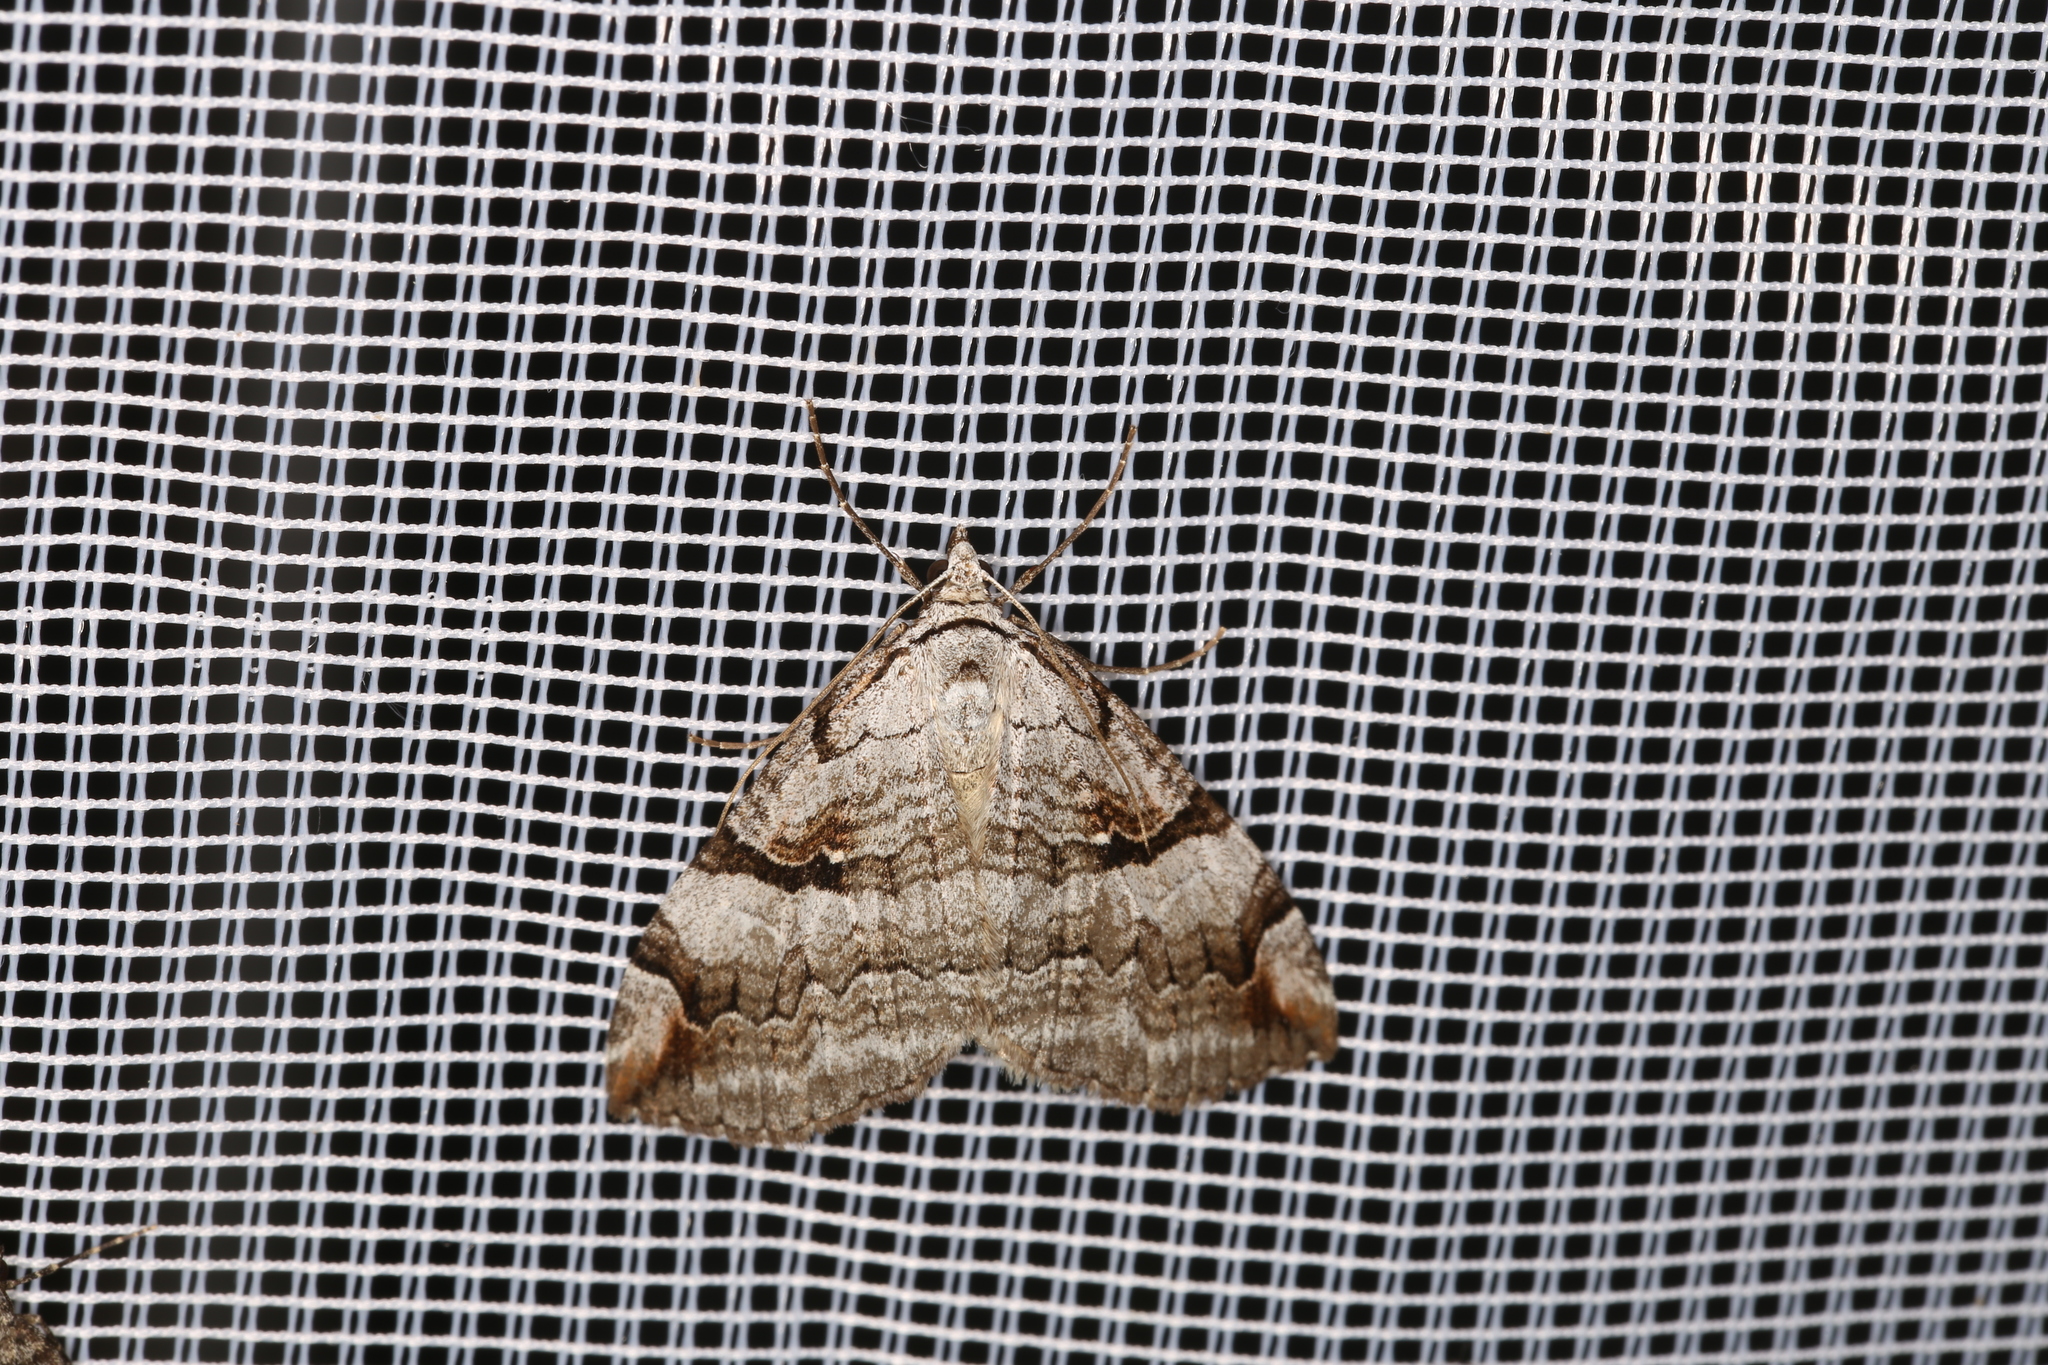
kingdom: Animalia
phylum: Arthropoda
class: Insecta
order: Lepidoptera
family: Geometridae
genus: Aplocera
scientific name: Aplocera praeformata
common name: Purple treble-bar
